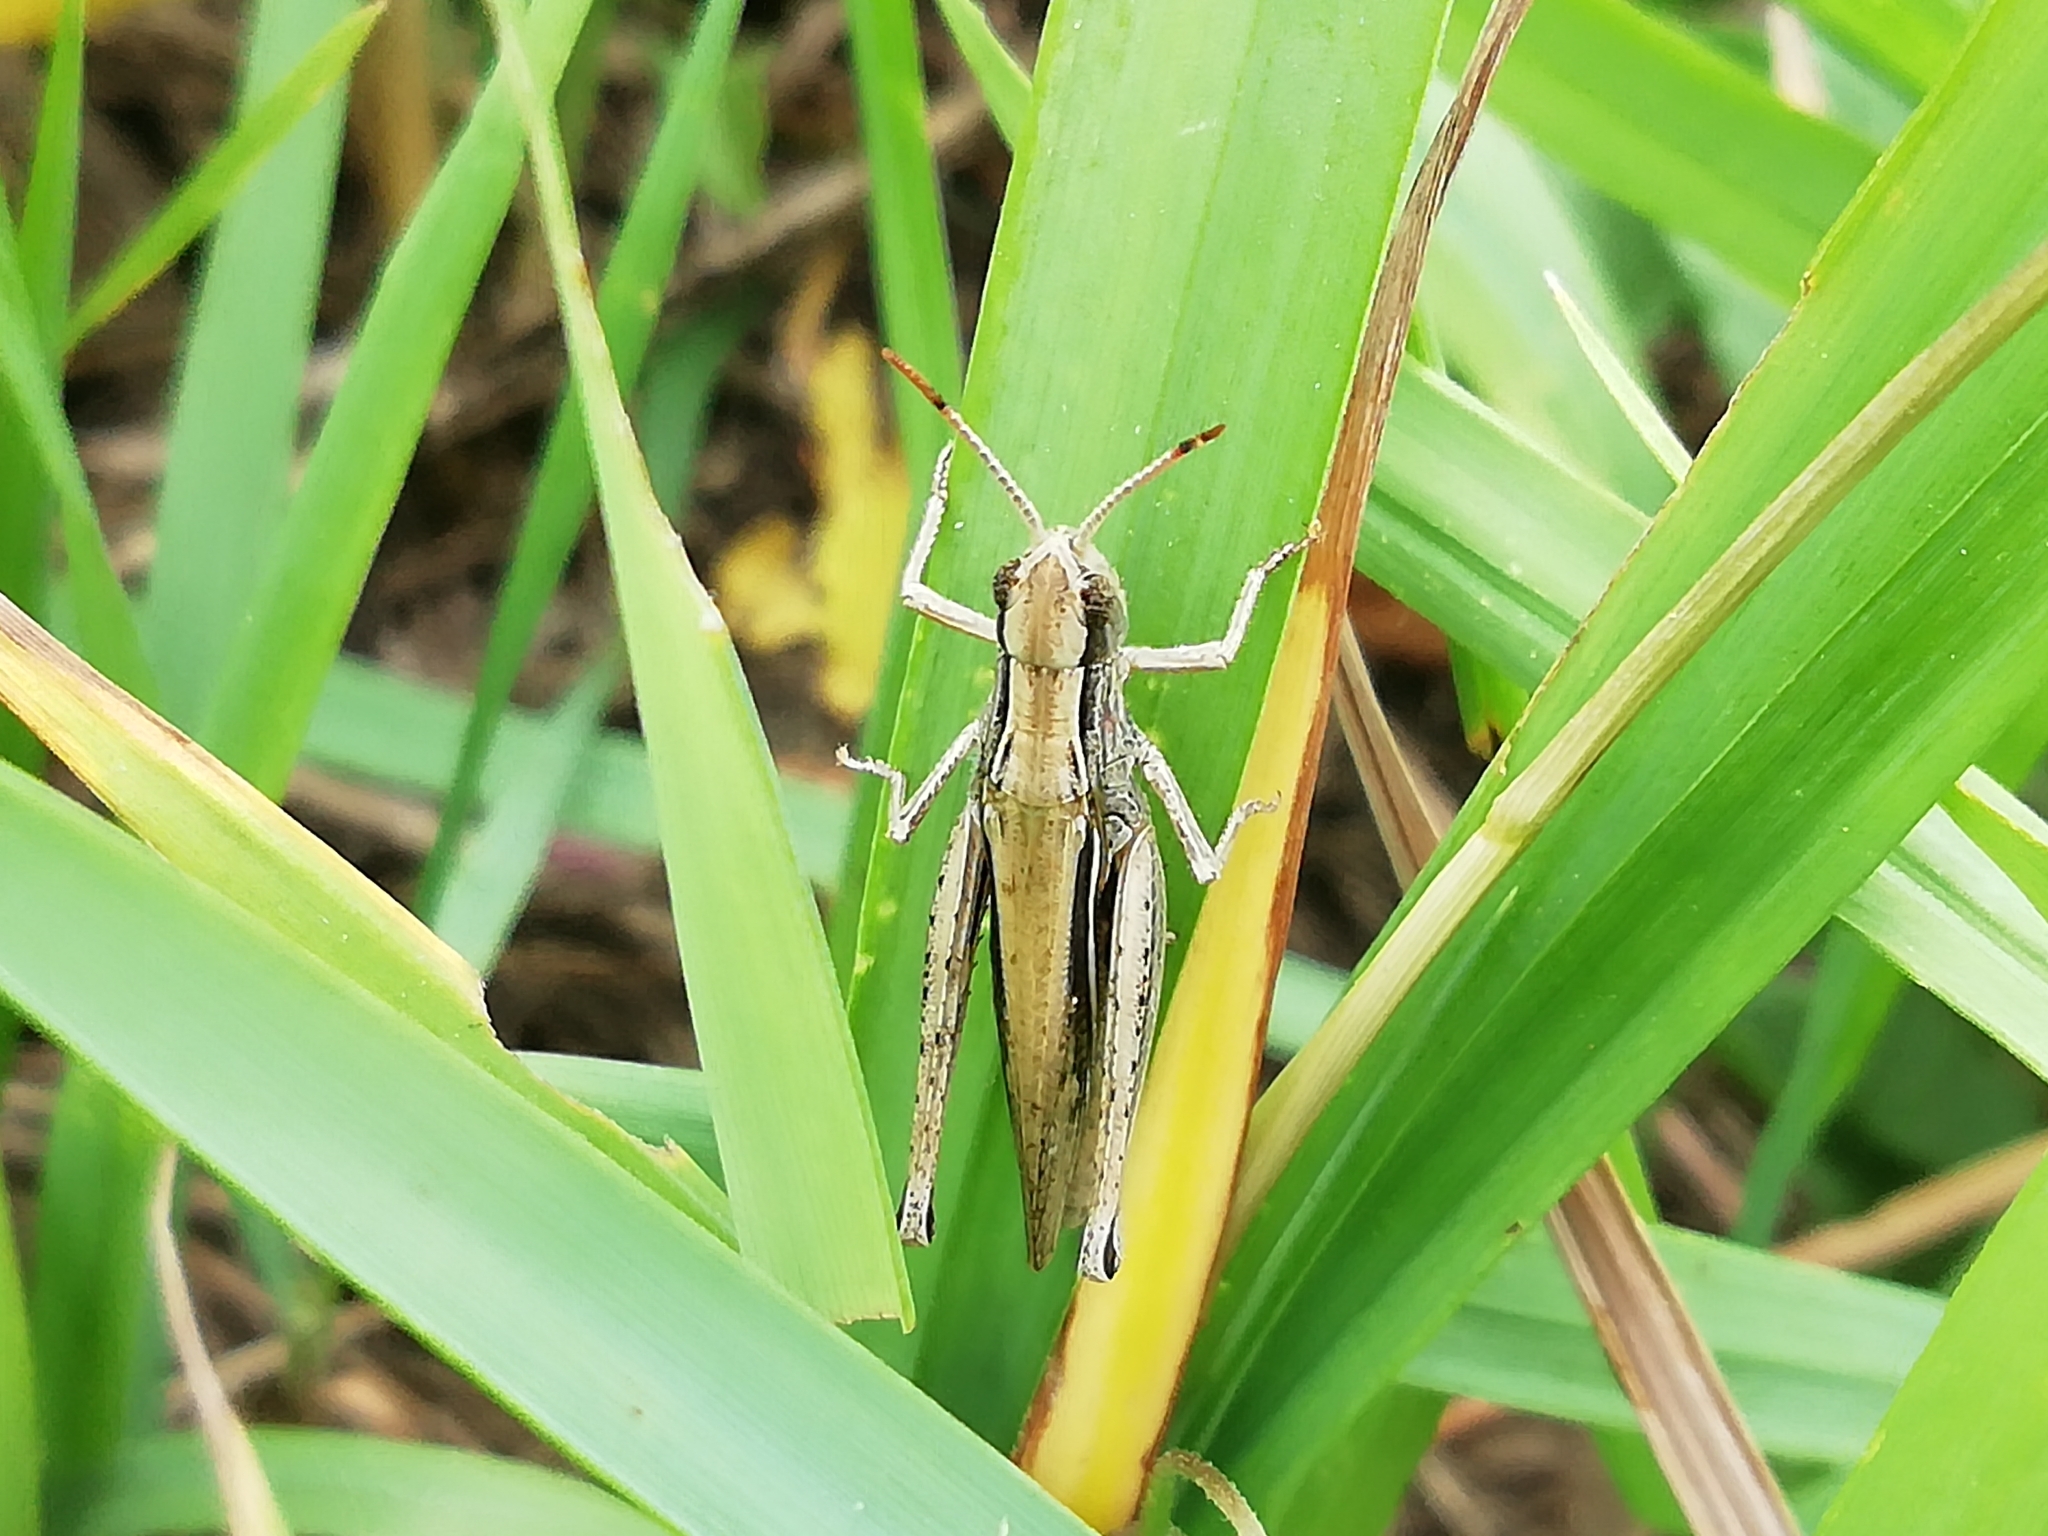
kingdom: Animalia
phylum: Arthropoda
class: Insecta
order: Orthoptera
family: Acrididae
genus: Chorthippus
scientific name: Chorthippus karelini
